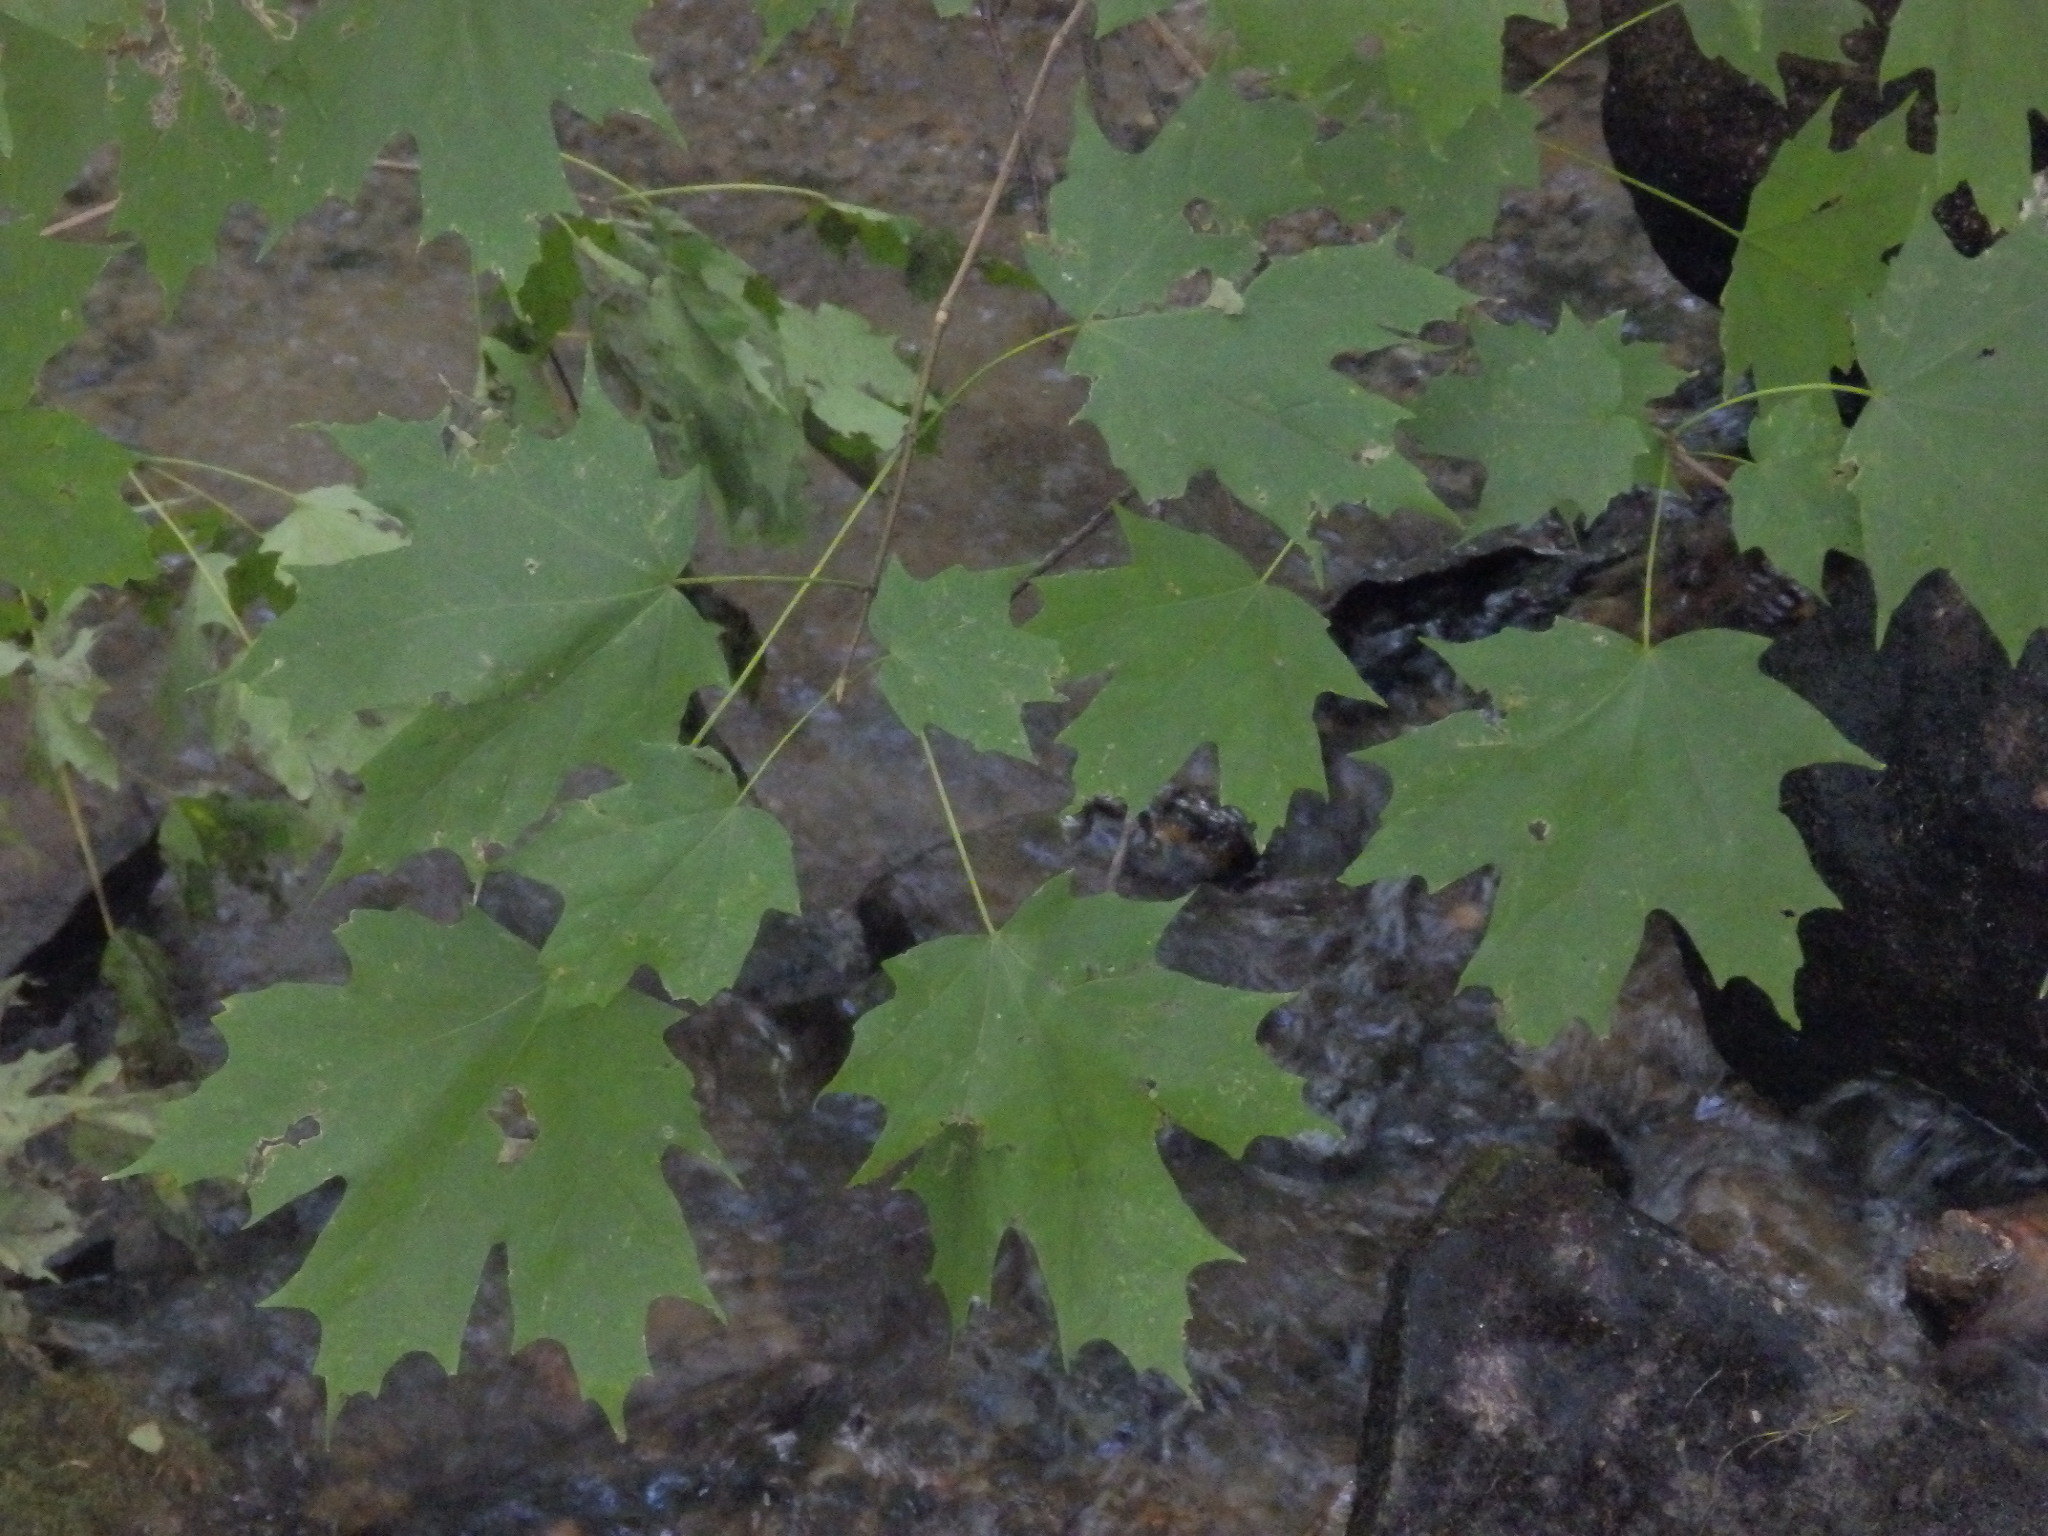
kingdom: Plantae
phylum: Tracheophyta
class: Magnoliopsida
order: Sapindales
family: Sapindaceae
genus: Acer
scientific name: Acer saccharum
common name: Sugar maple
